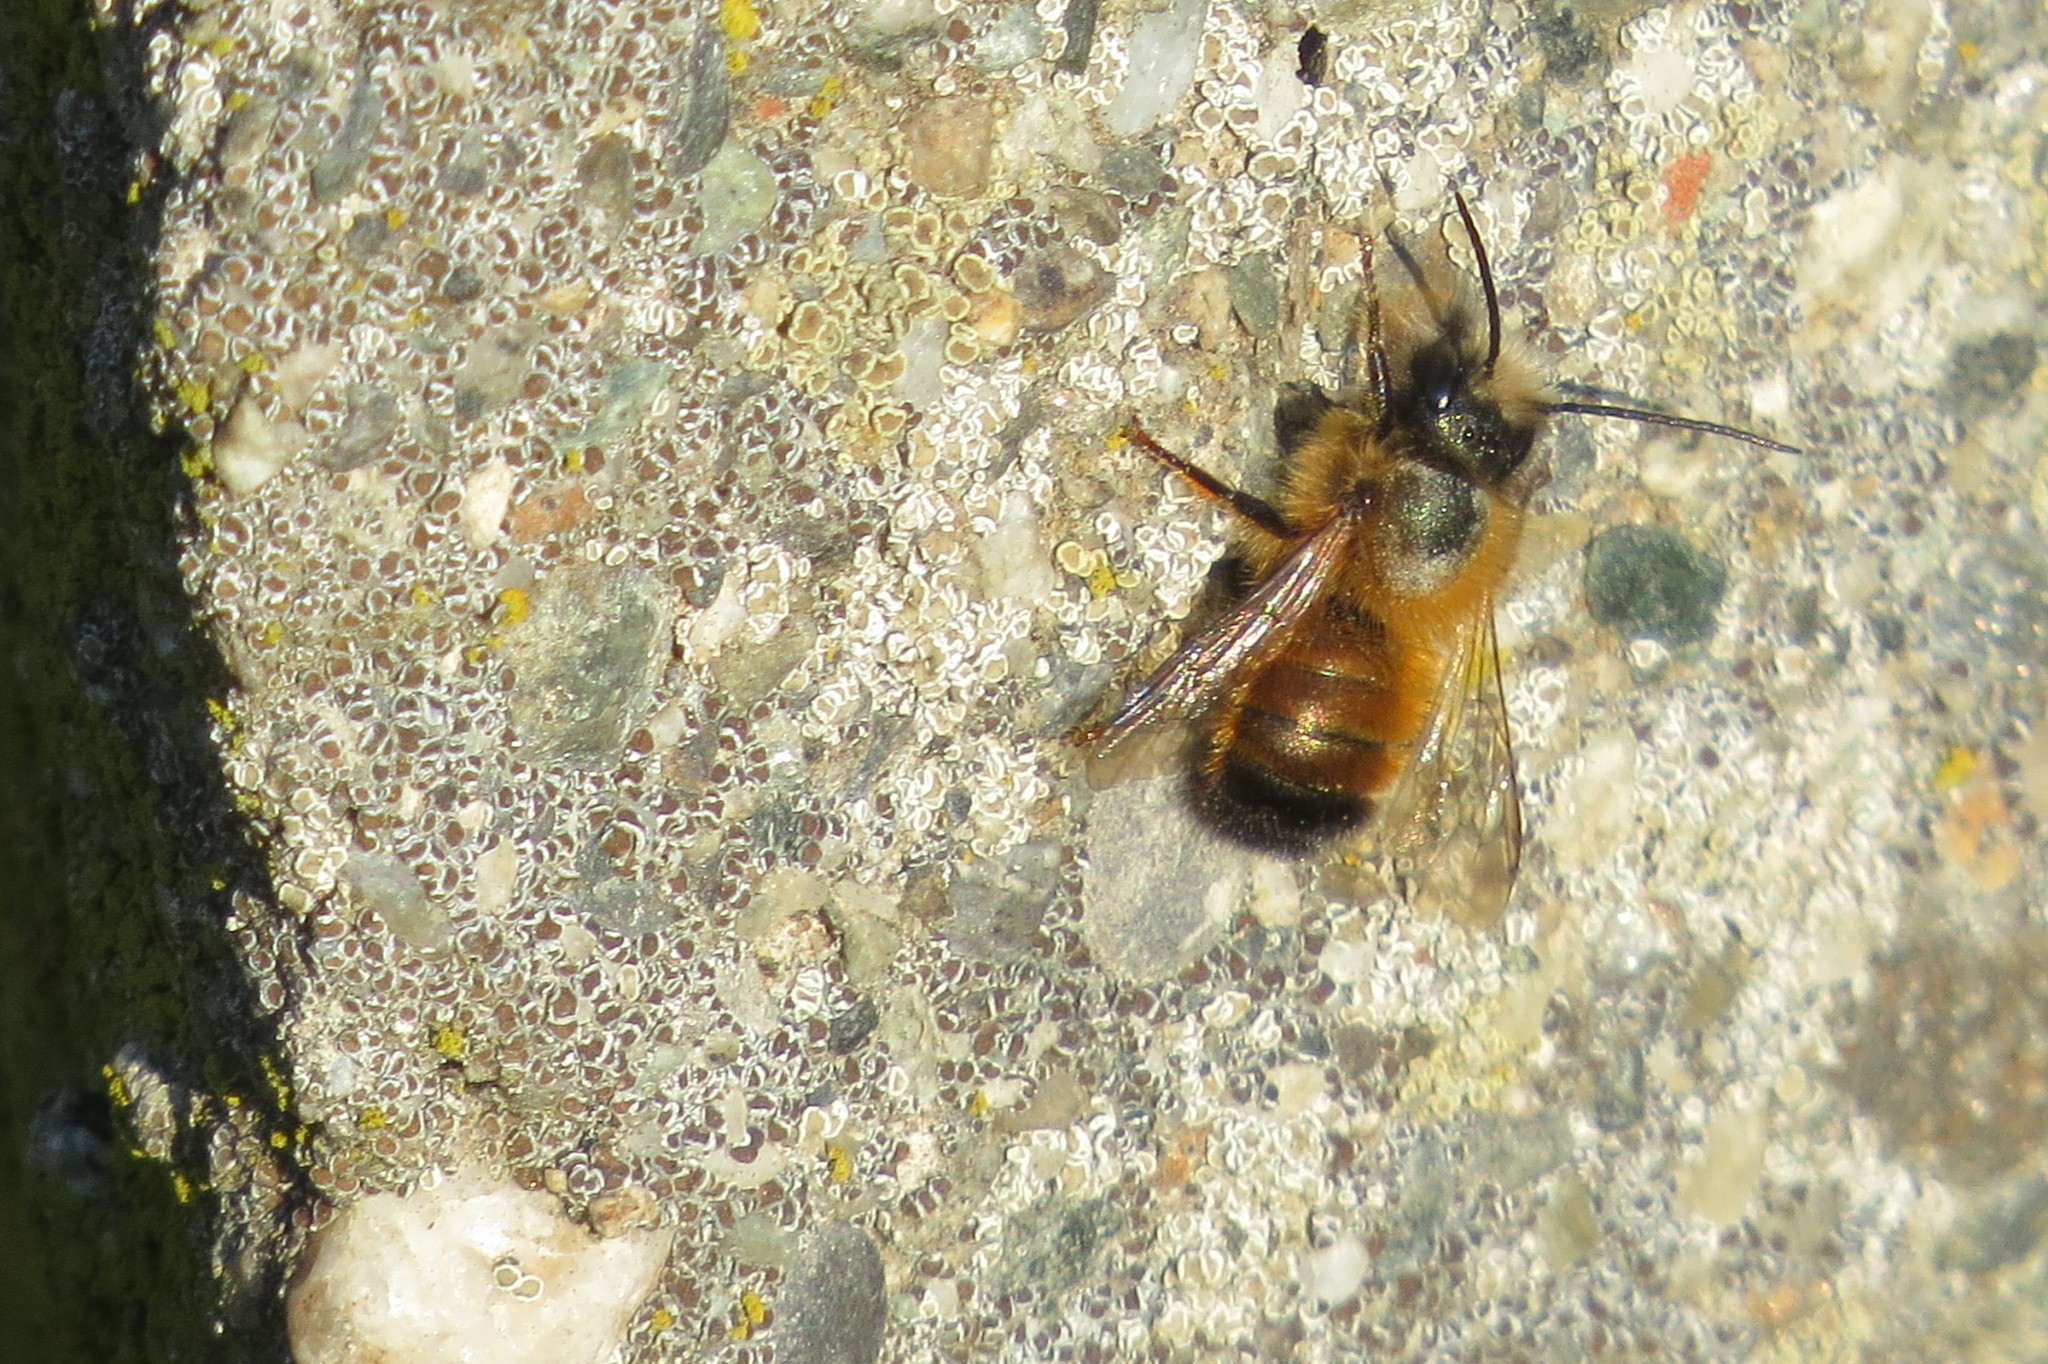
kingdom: Animalia
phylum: Arthropoda
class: Insecta
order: Hymenoptera
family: Megachilidae
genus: Osmia
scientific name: Osmia bicornis
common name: Red mason bee
